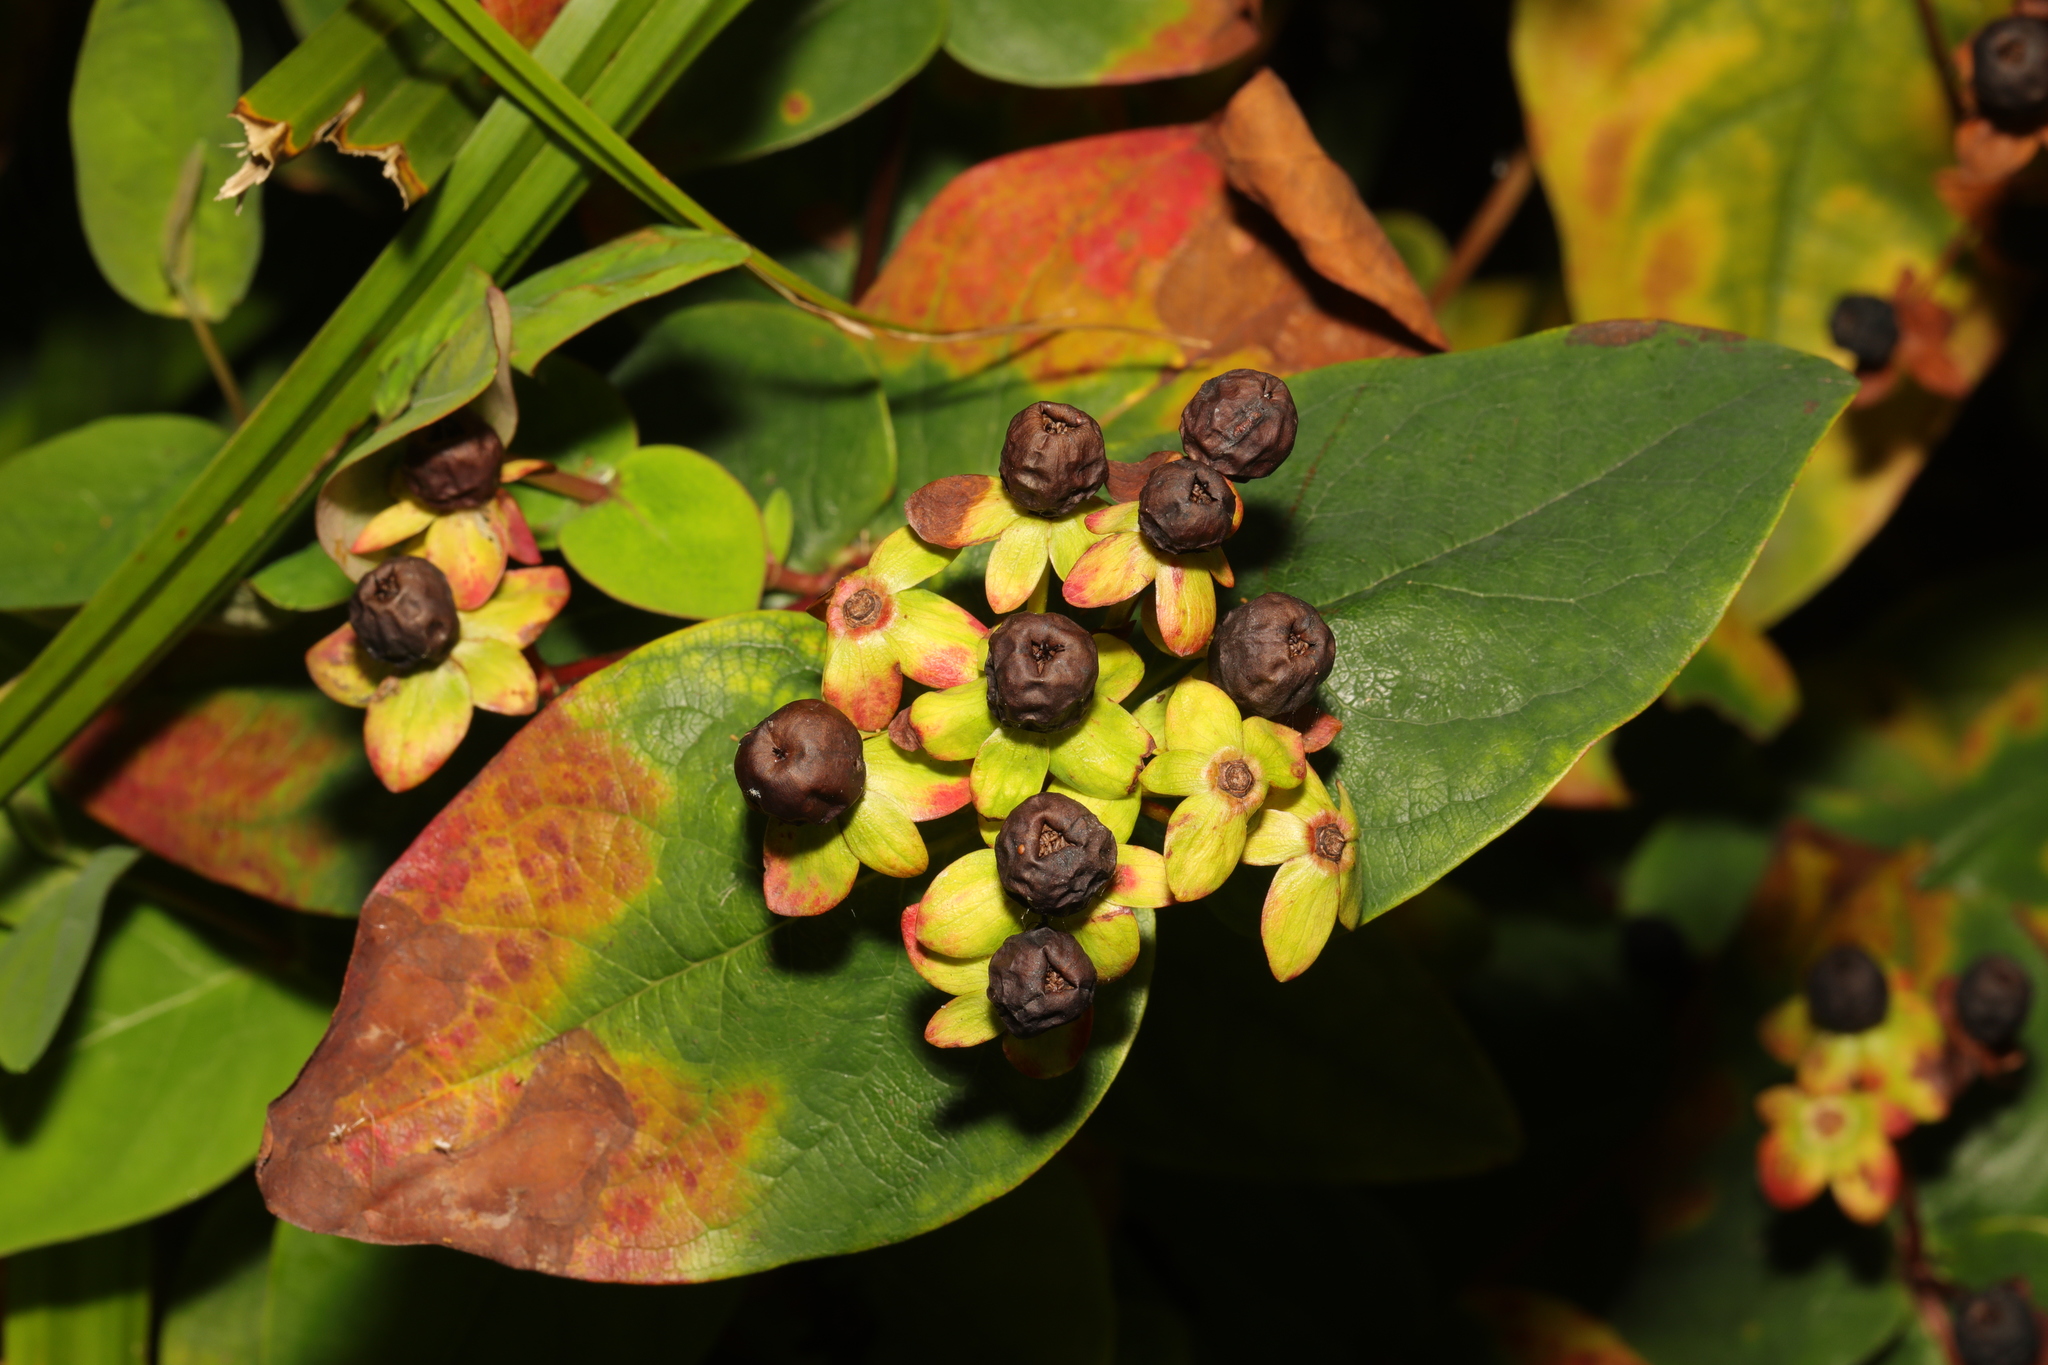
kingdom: Plantae
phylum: Tracheophyta
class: Magnoliopsida
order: Malpighiales
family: Hypericaceae
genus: Hypericum
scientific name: Hypericum androsaemum
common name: Sweet-amber
